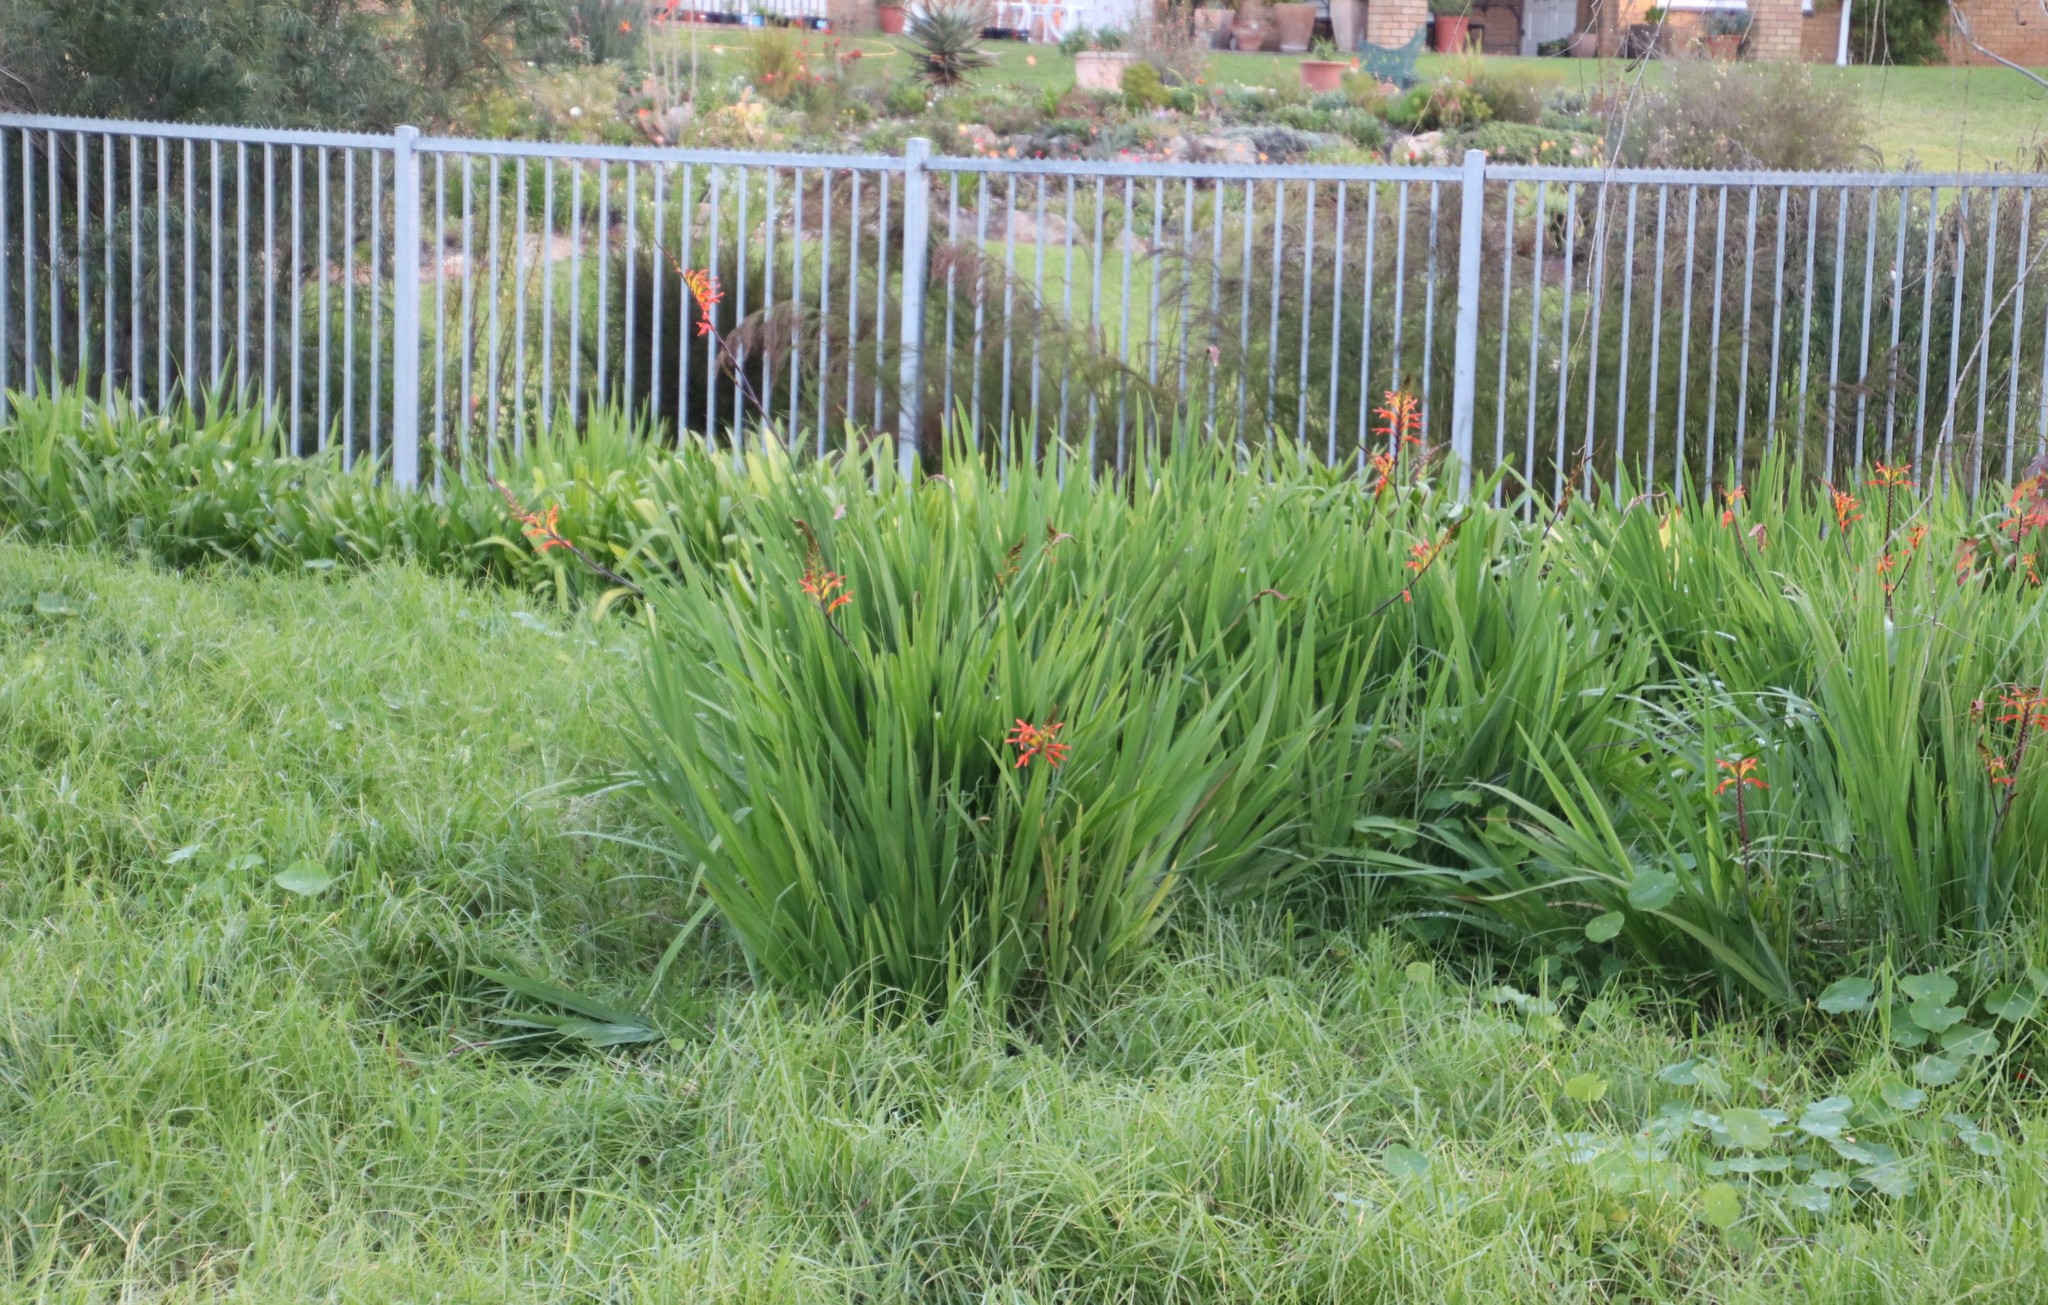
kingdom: Plantae
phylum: Tracheophyta
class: Liliopsida
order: Asparagales
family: Iridaceae
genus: Chasmanthe
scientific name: Chasmanthe aethiopica
